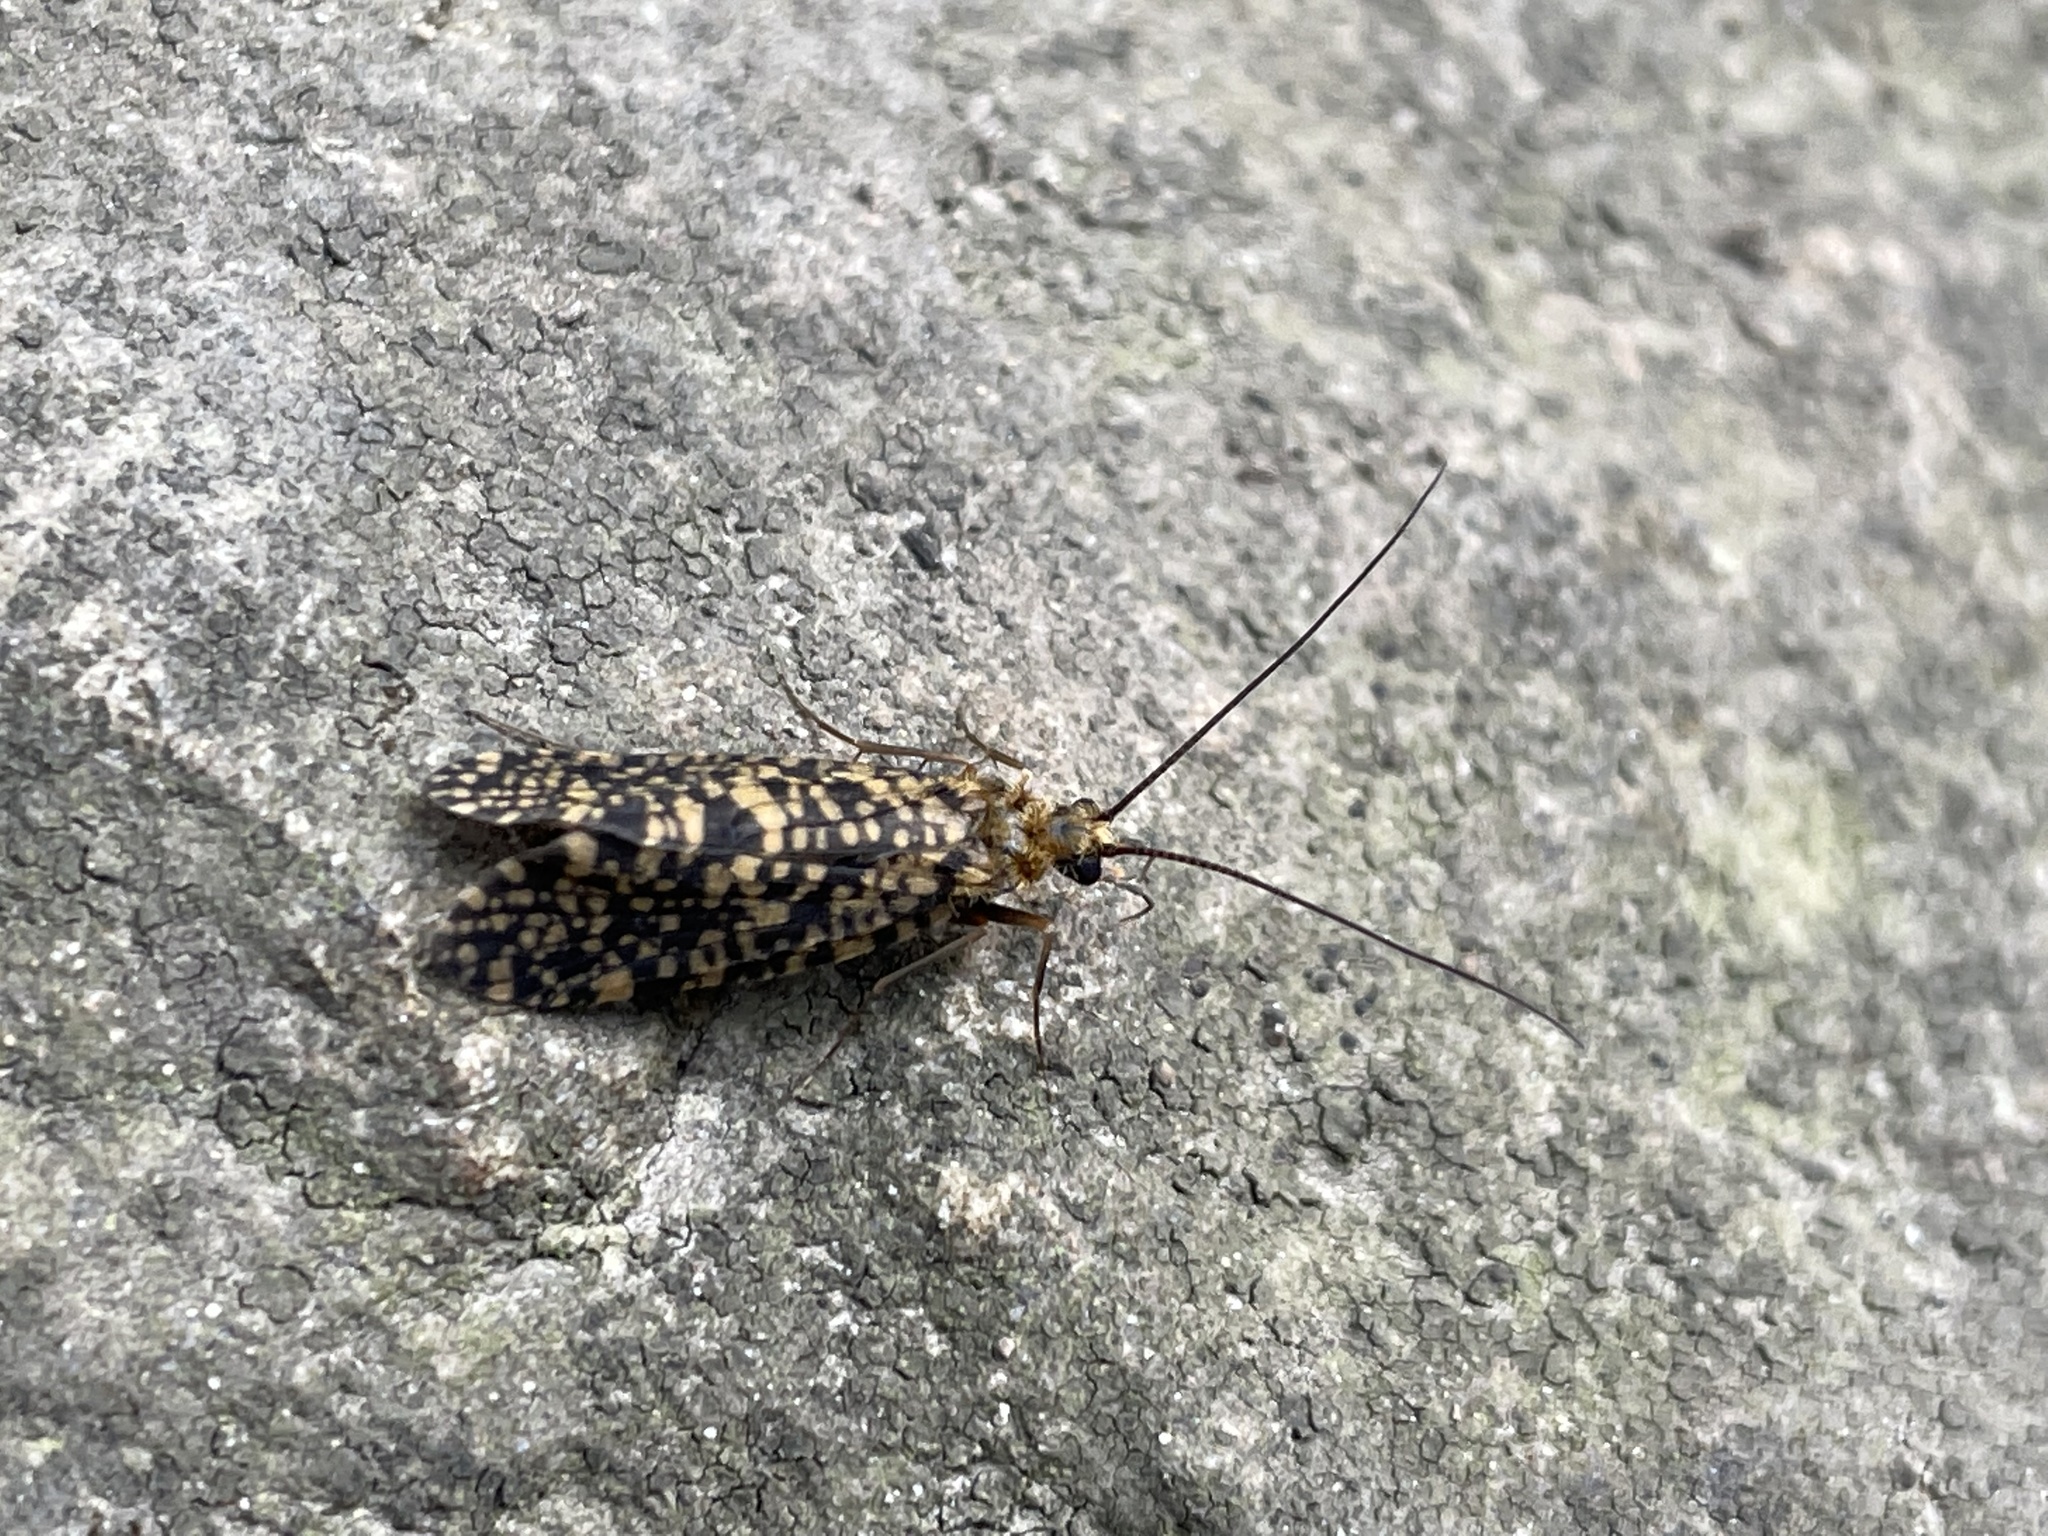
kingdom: Animalia
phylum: Arthropoda
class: Insecta
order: Trichoptera
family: Philopotamidae
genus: Philopotamus
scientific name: Philopotamus montanus
